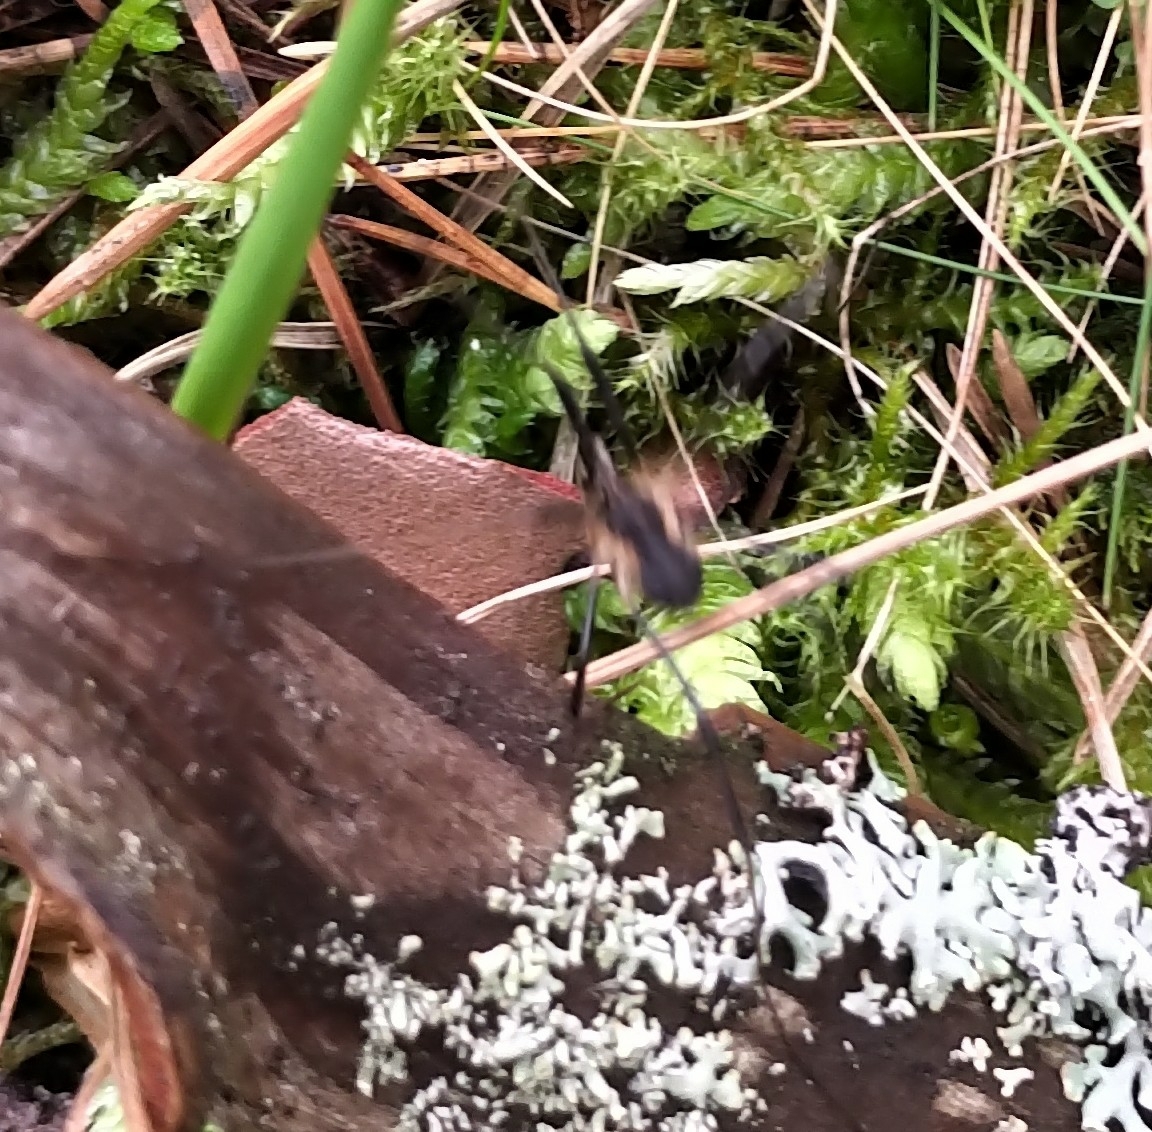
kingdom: Animalia
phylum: Arthropoda
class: Arachnida
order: Opiliones
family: Phalangiidae
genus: Mitopus
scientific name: Mitopus morio
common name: Saddleback harvestman
